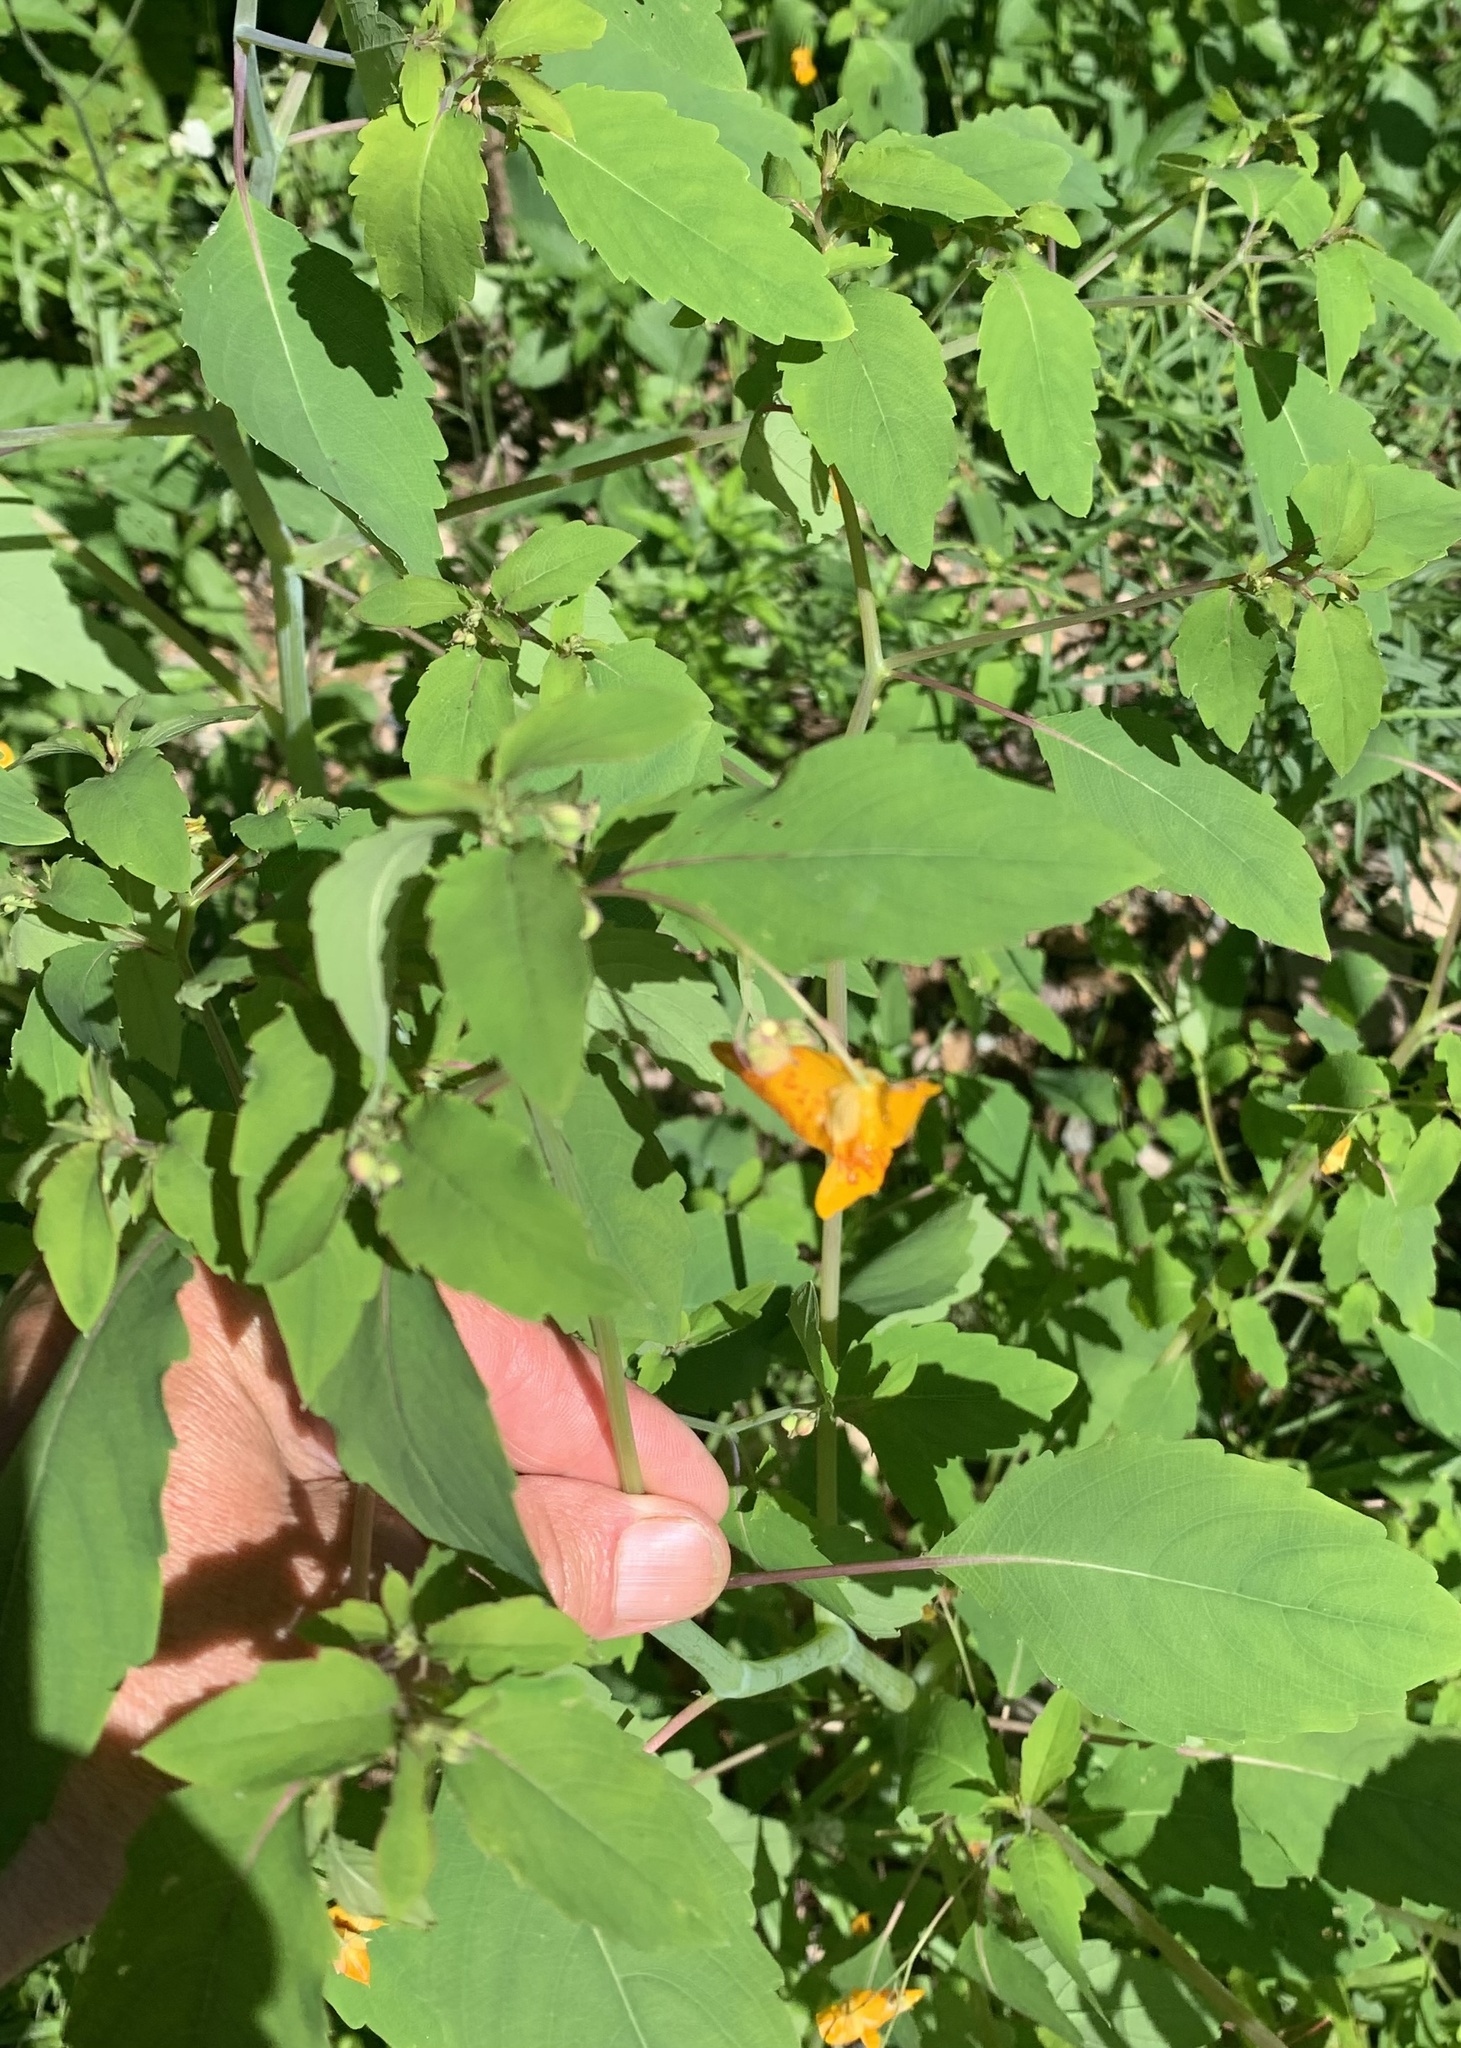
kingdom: Plantae
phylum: Tracheophyta
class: Magnoliopsida
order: Ericales
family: Balsaminaceae
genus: Impatiens
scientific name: Impatiens capensis
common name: Orange balsam
